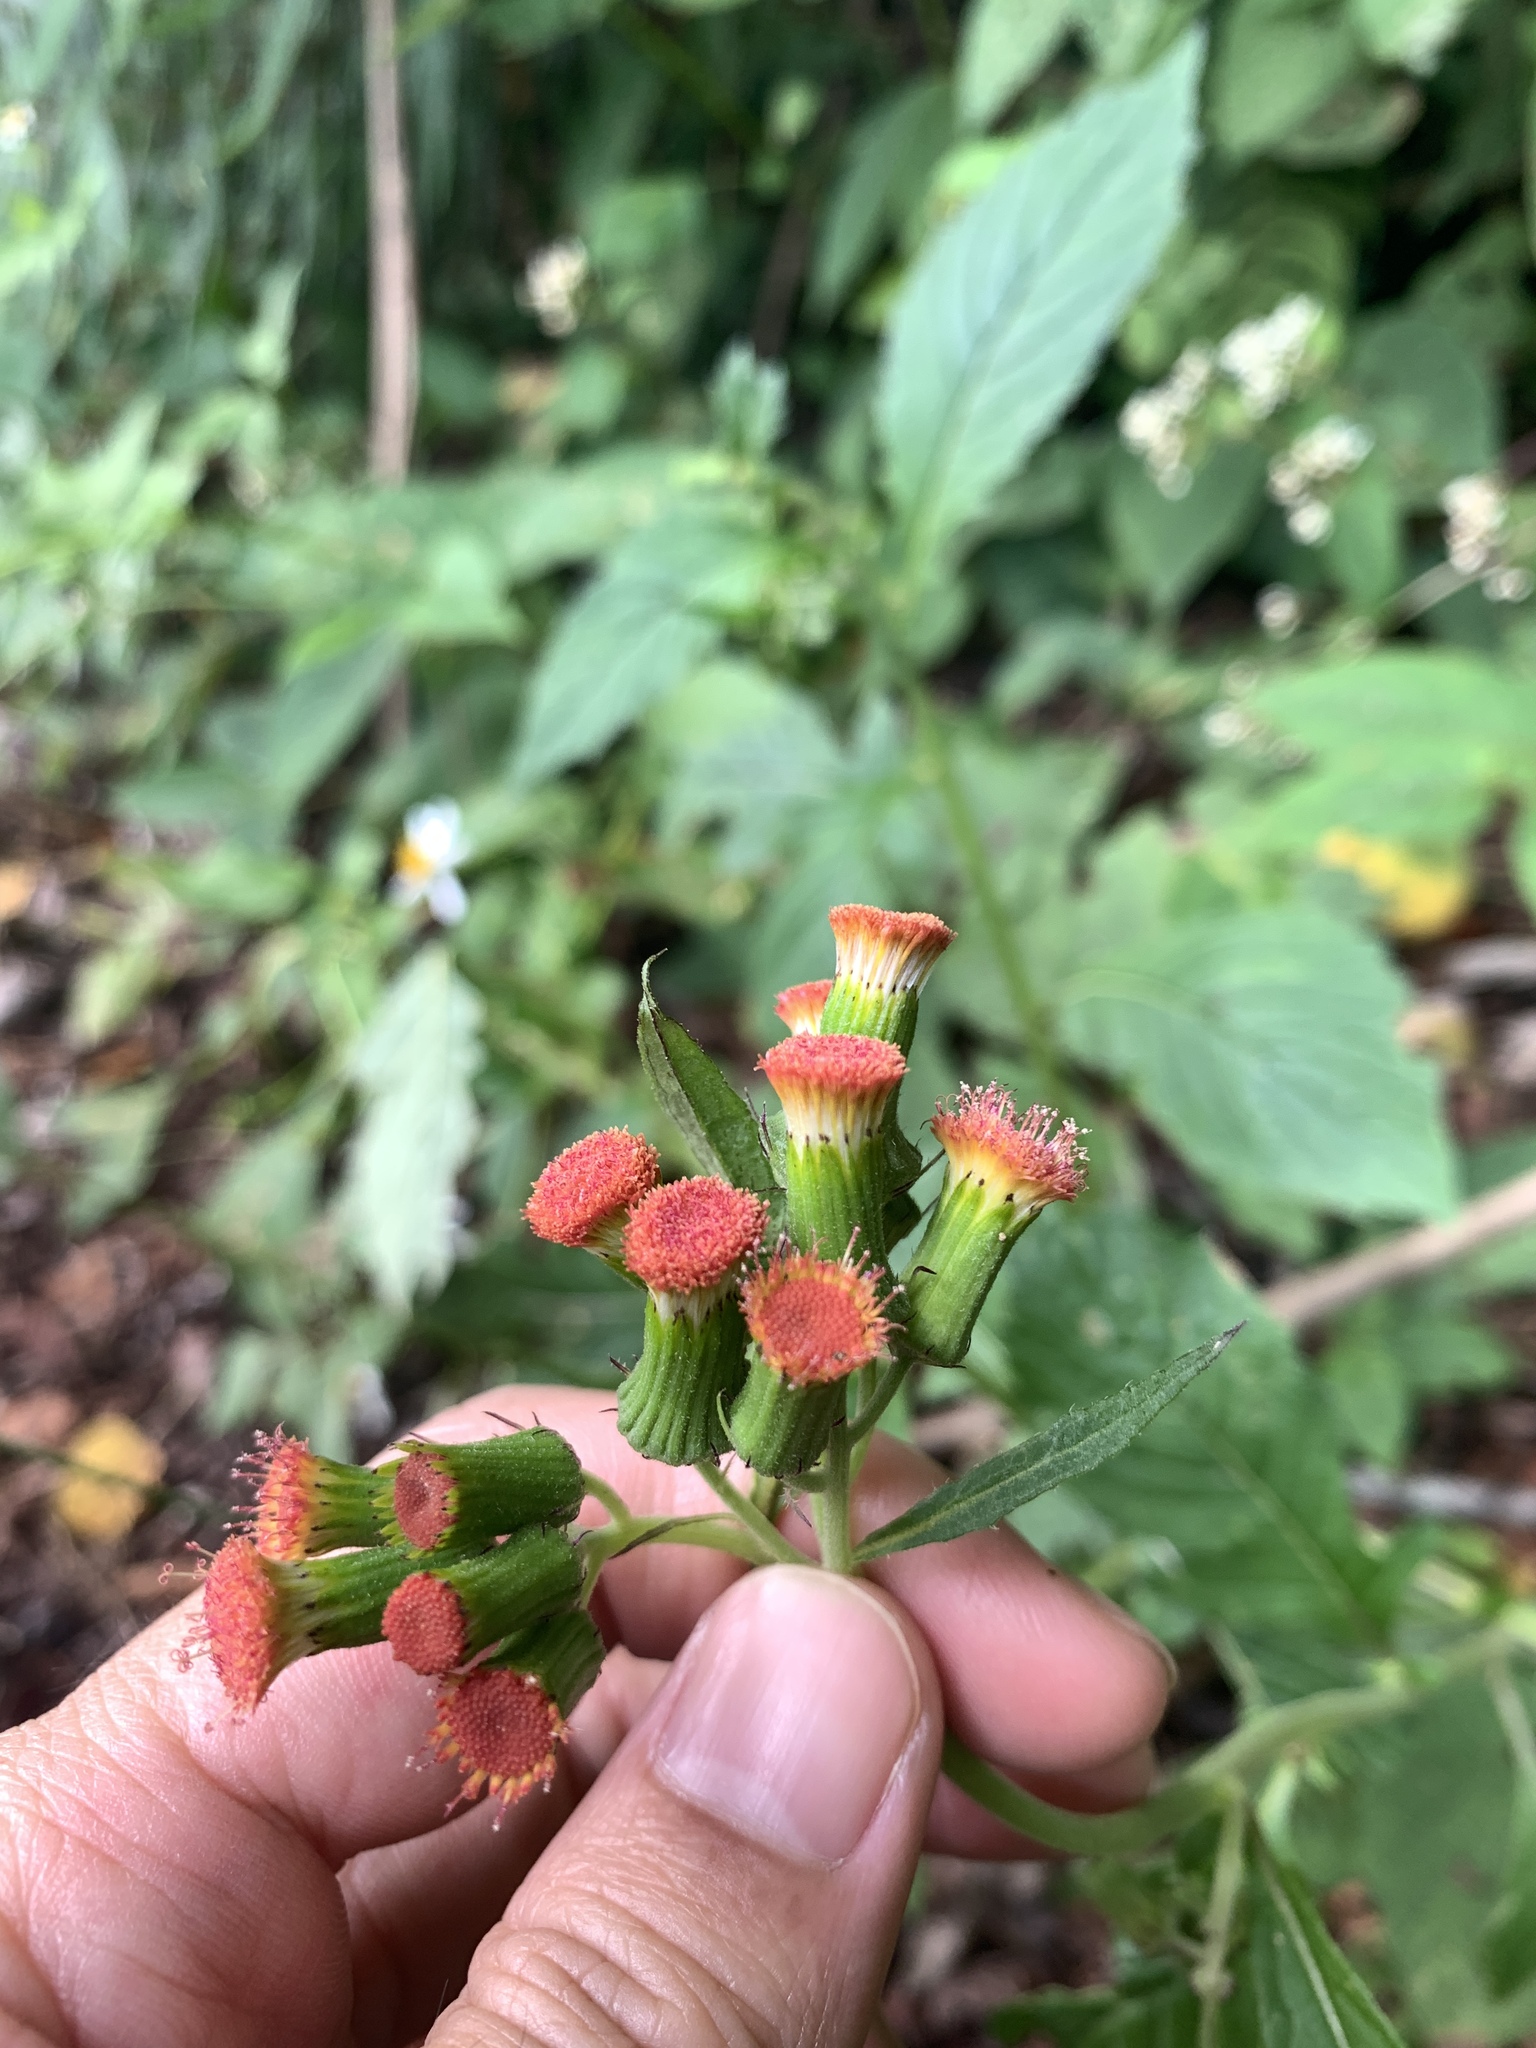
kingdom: Plantae
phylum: Tracheophyta
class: Magnoliopsida
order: Asterales
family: Asteraceae
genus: Crassocephalum
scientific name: Crassocephalum crepidioides
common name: Redflower ragleaf
